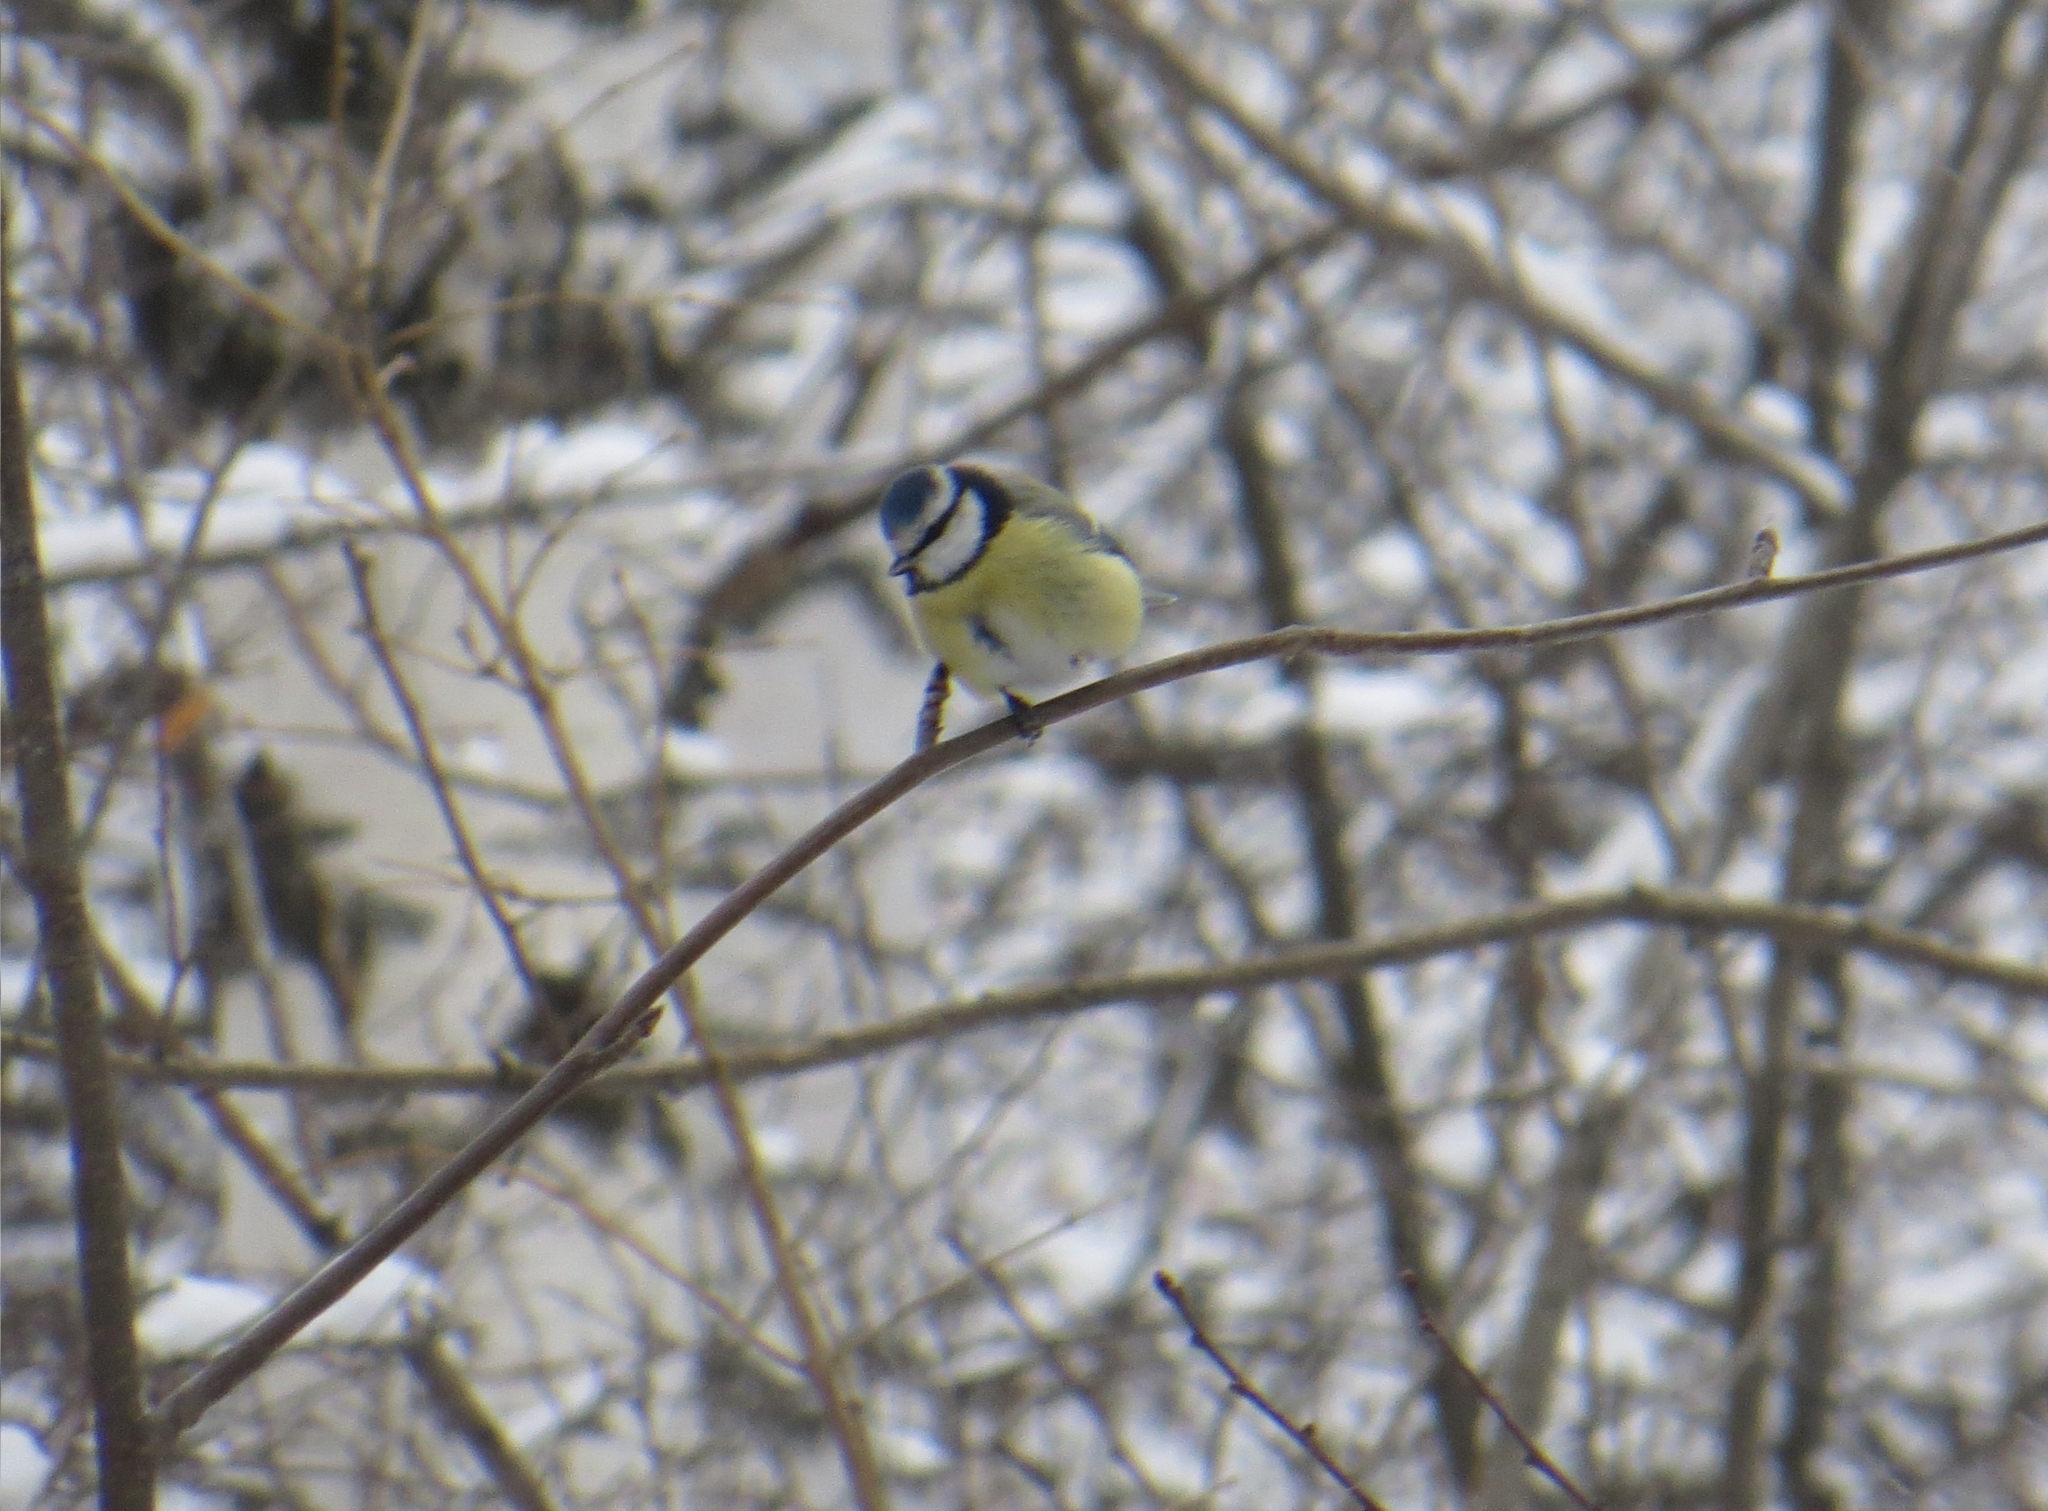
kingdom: Animalia
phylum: Chordata
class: Aves
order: Passeriformes
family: Paridae
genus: Cyanistes
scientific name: Cyanistes caeruleus
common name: Eurasian blue tit
